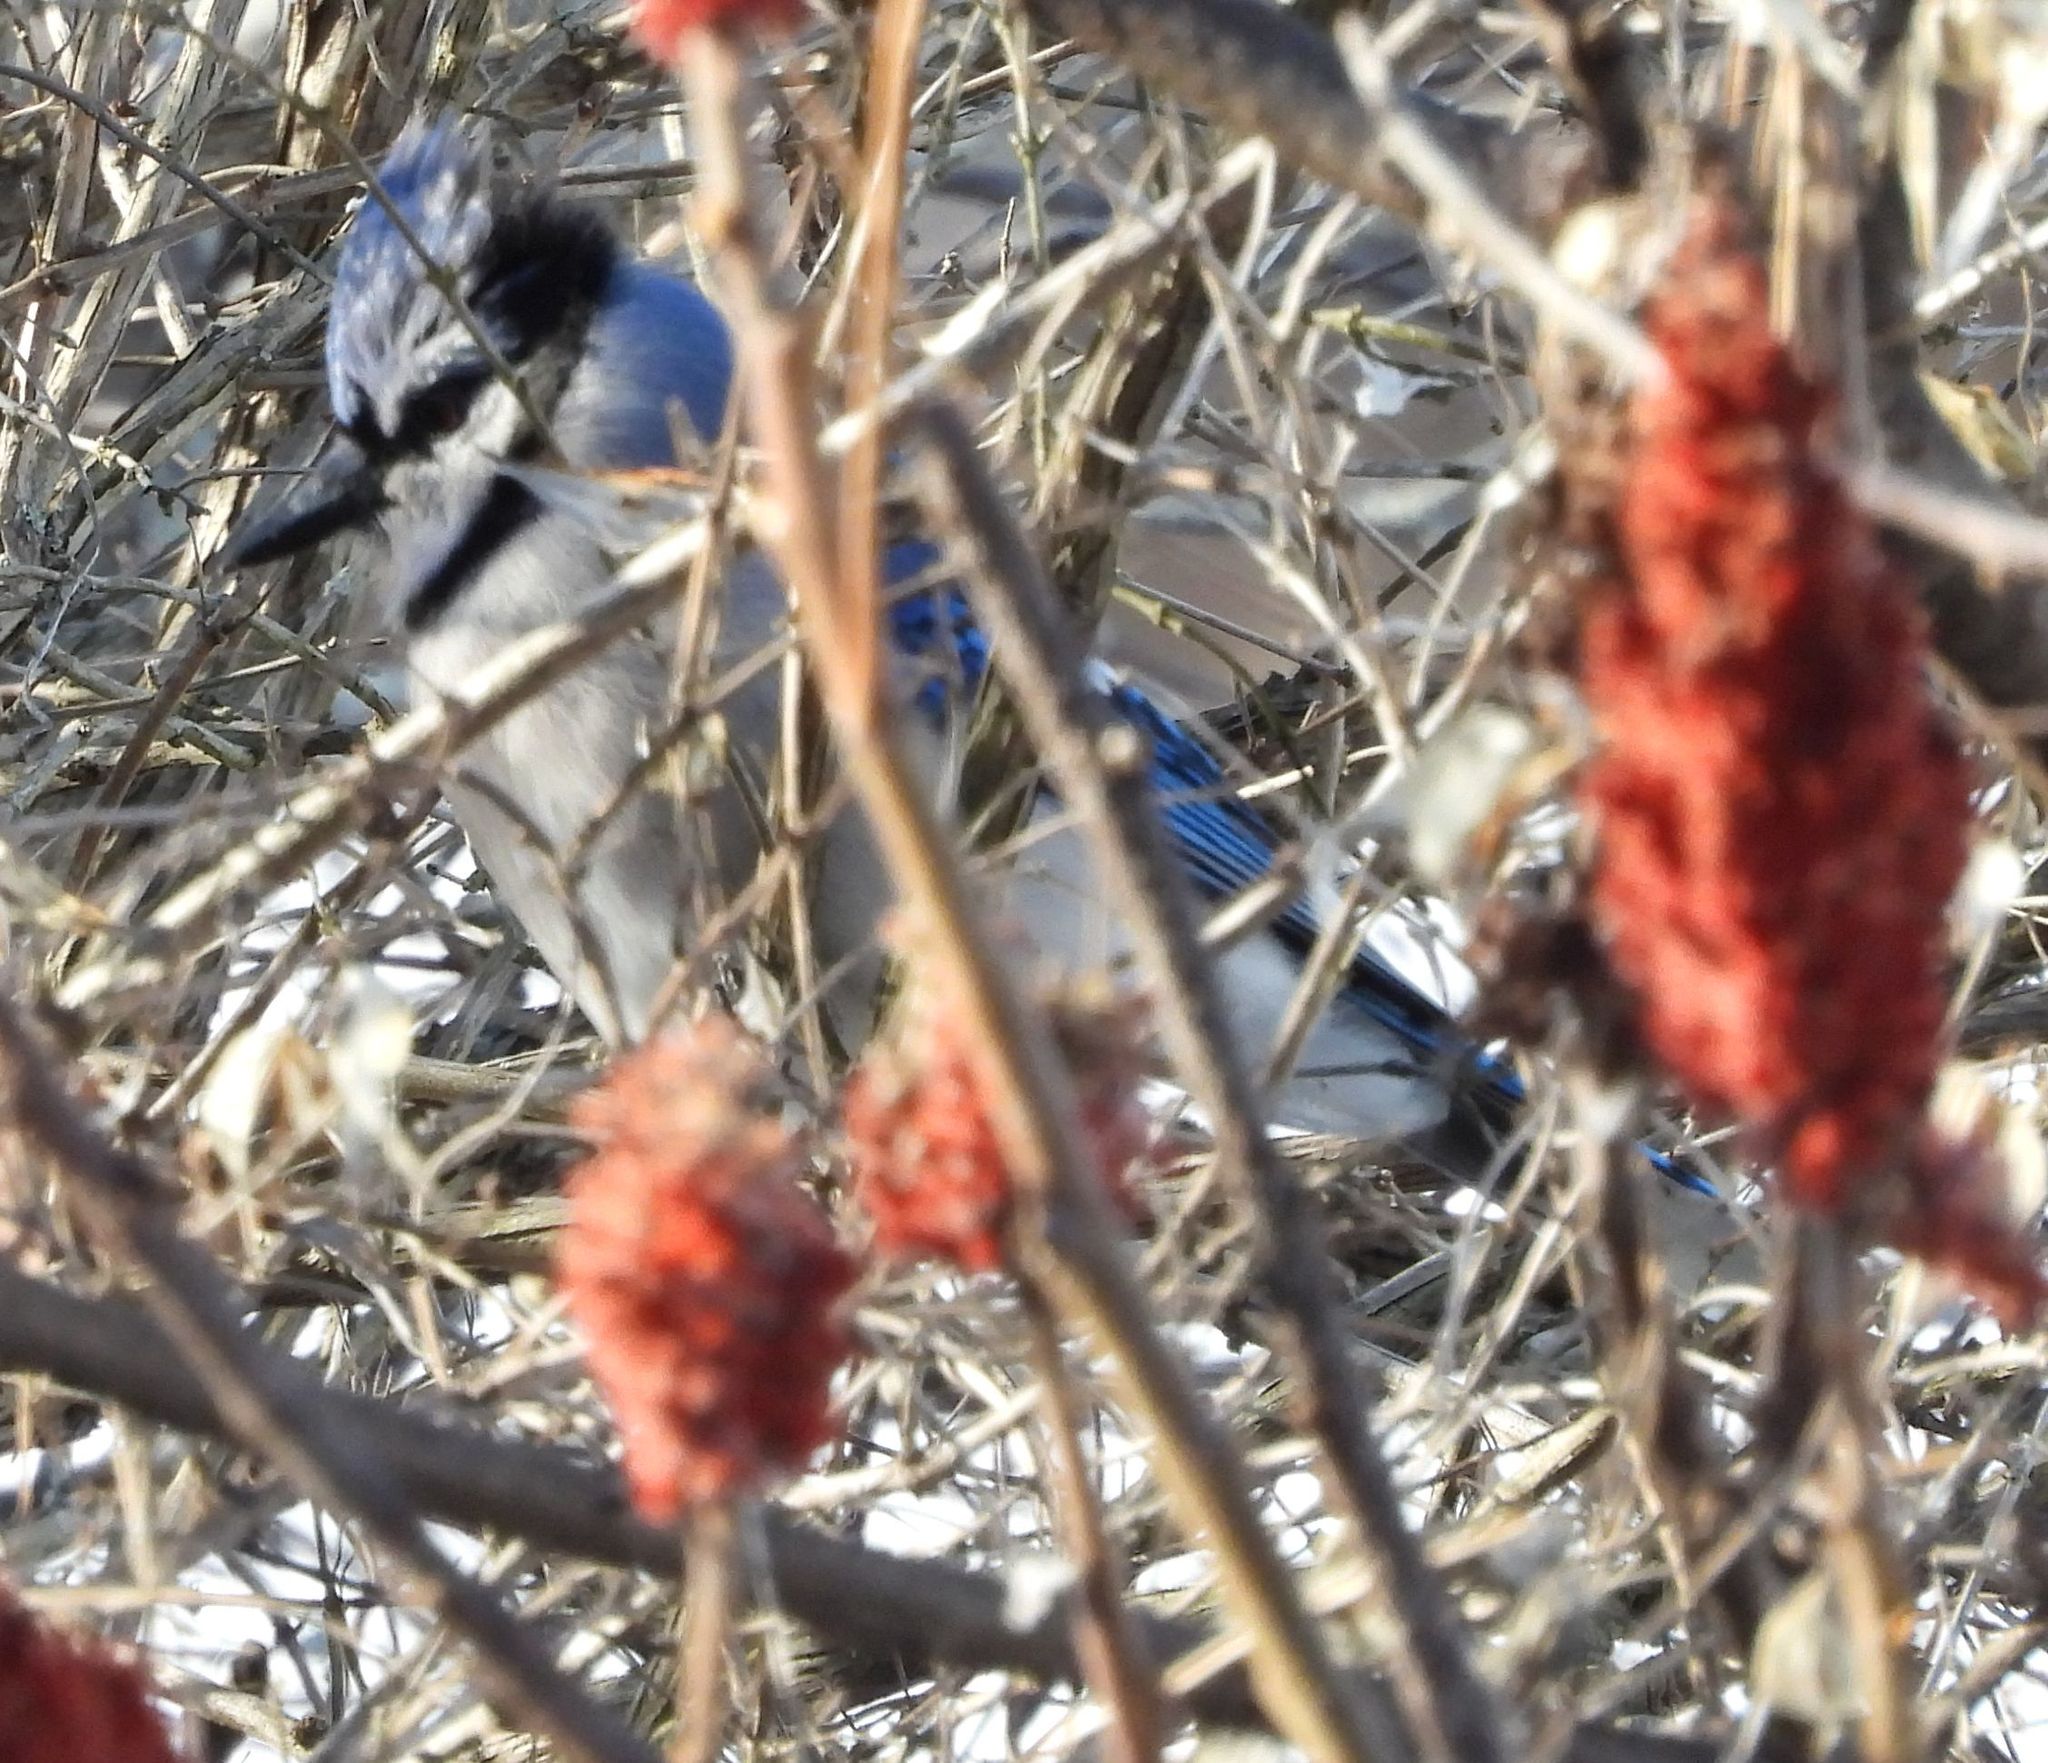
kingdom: Animalia
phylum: Chordata
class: Aves
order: Passeriformes
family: Corvidae
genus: Cyanocitta
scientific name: Cyanocitta cristata
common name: Blue jay
